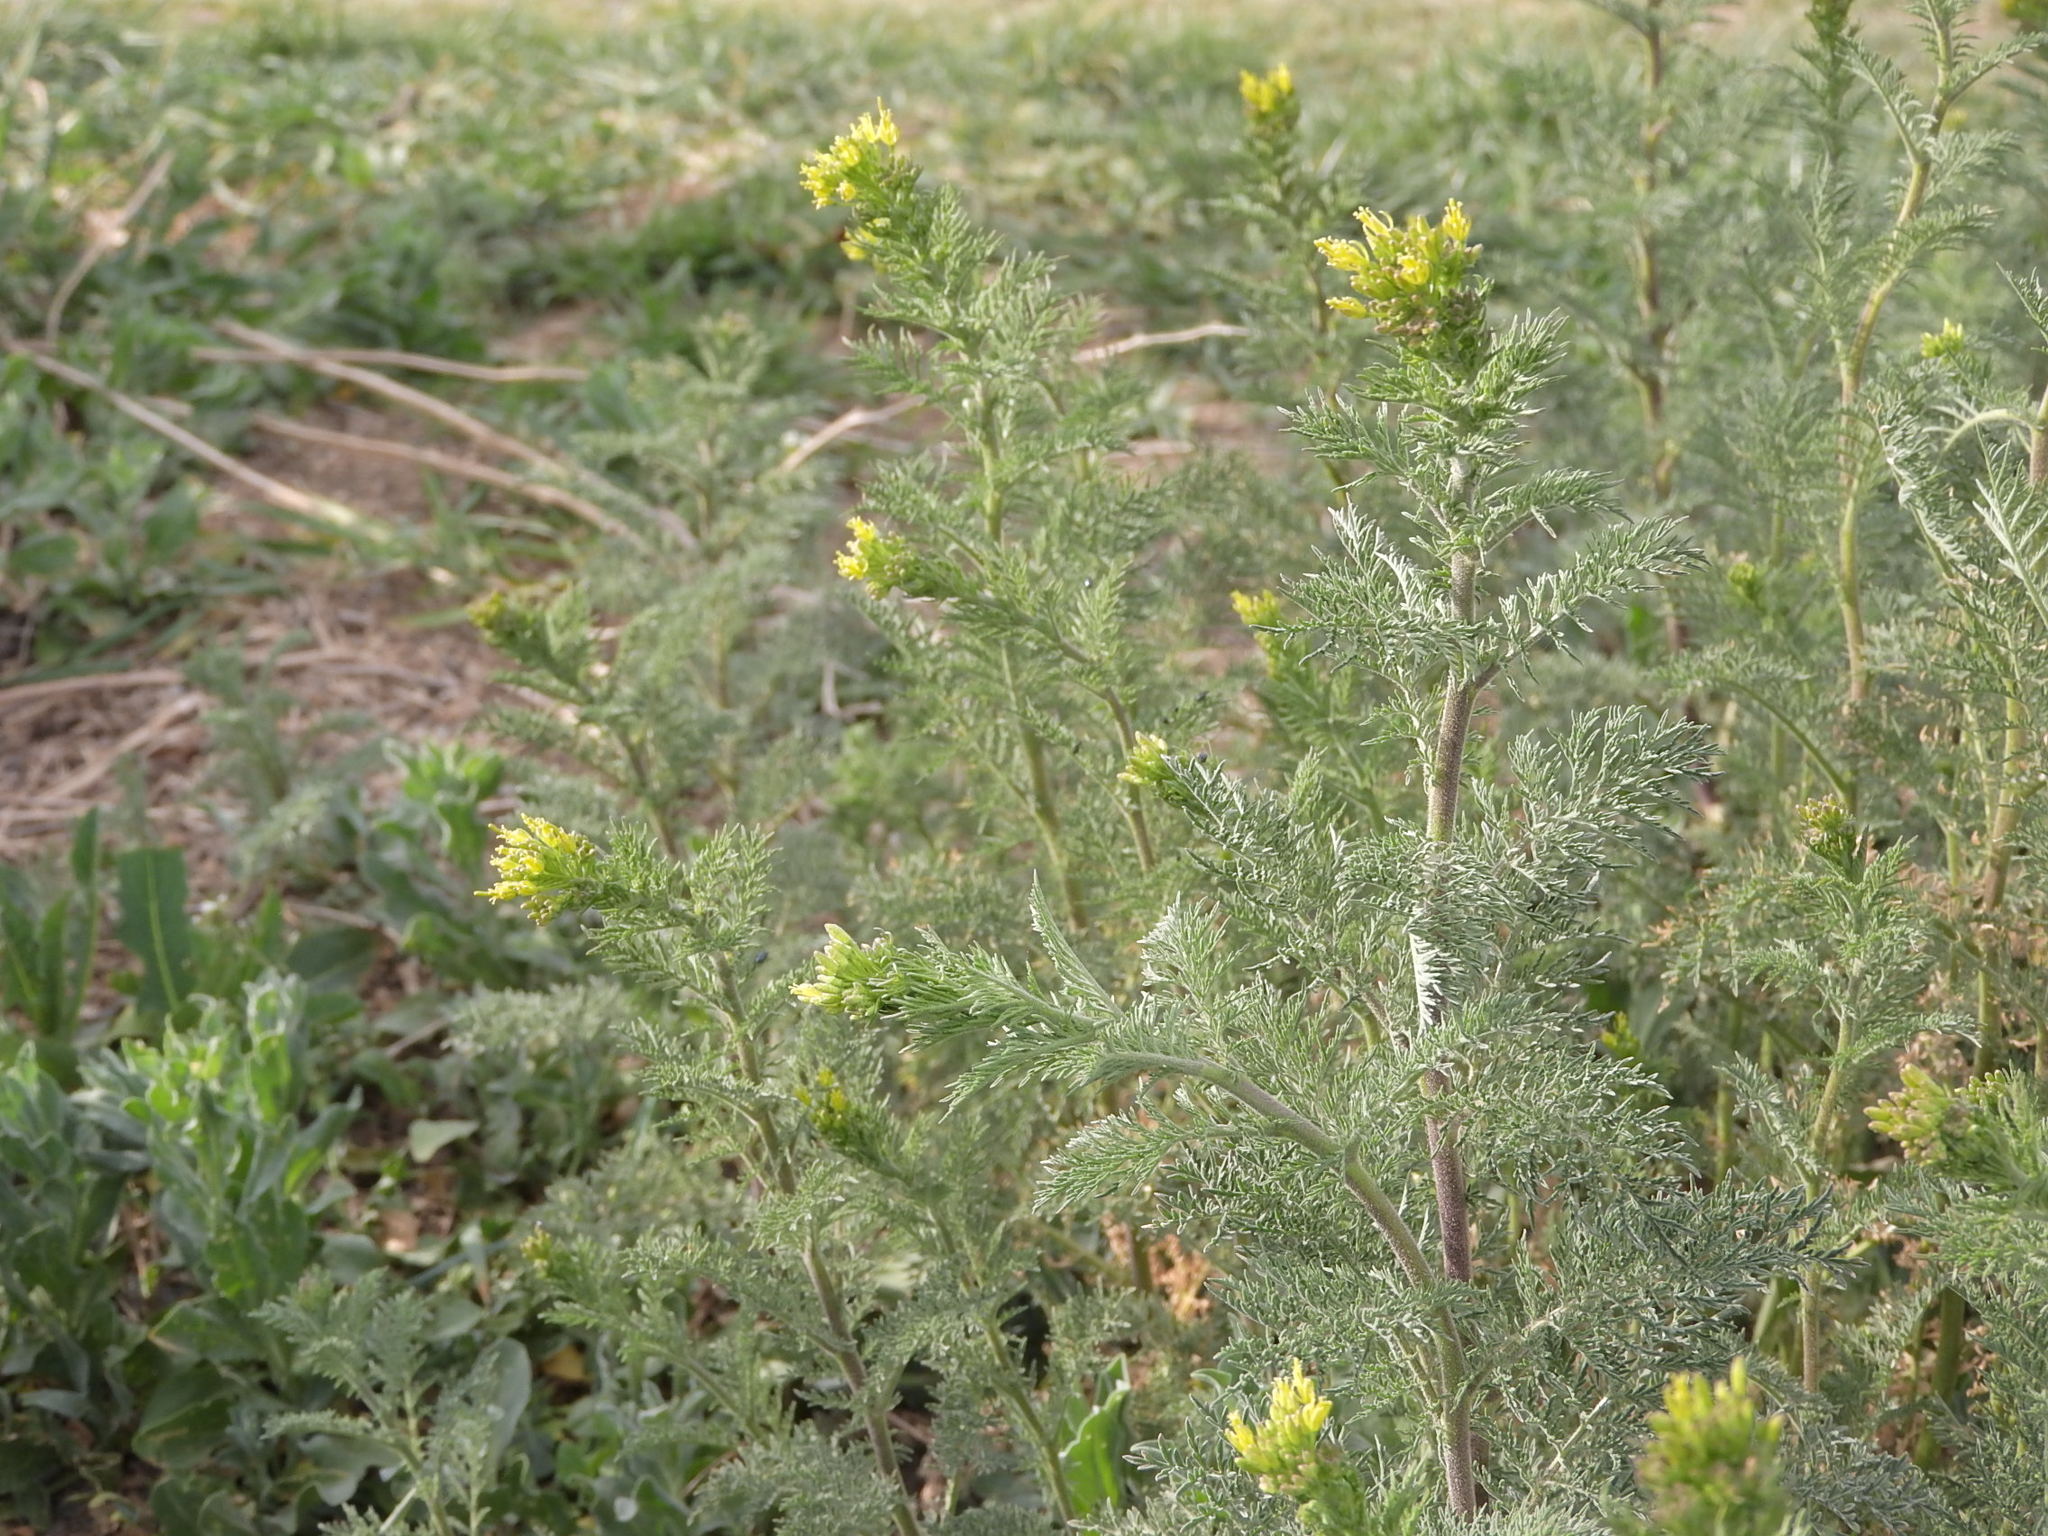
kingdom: Plantae
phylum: Tracheophyta
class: Magnoliopsida
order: Brassicales
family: Brassicaceae
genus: Descurainia
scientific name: Descurainia sophia
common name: Flixweed
